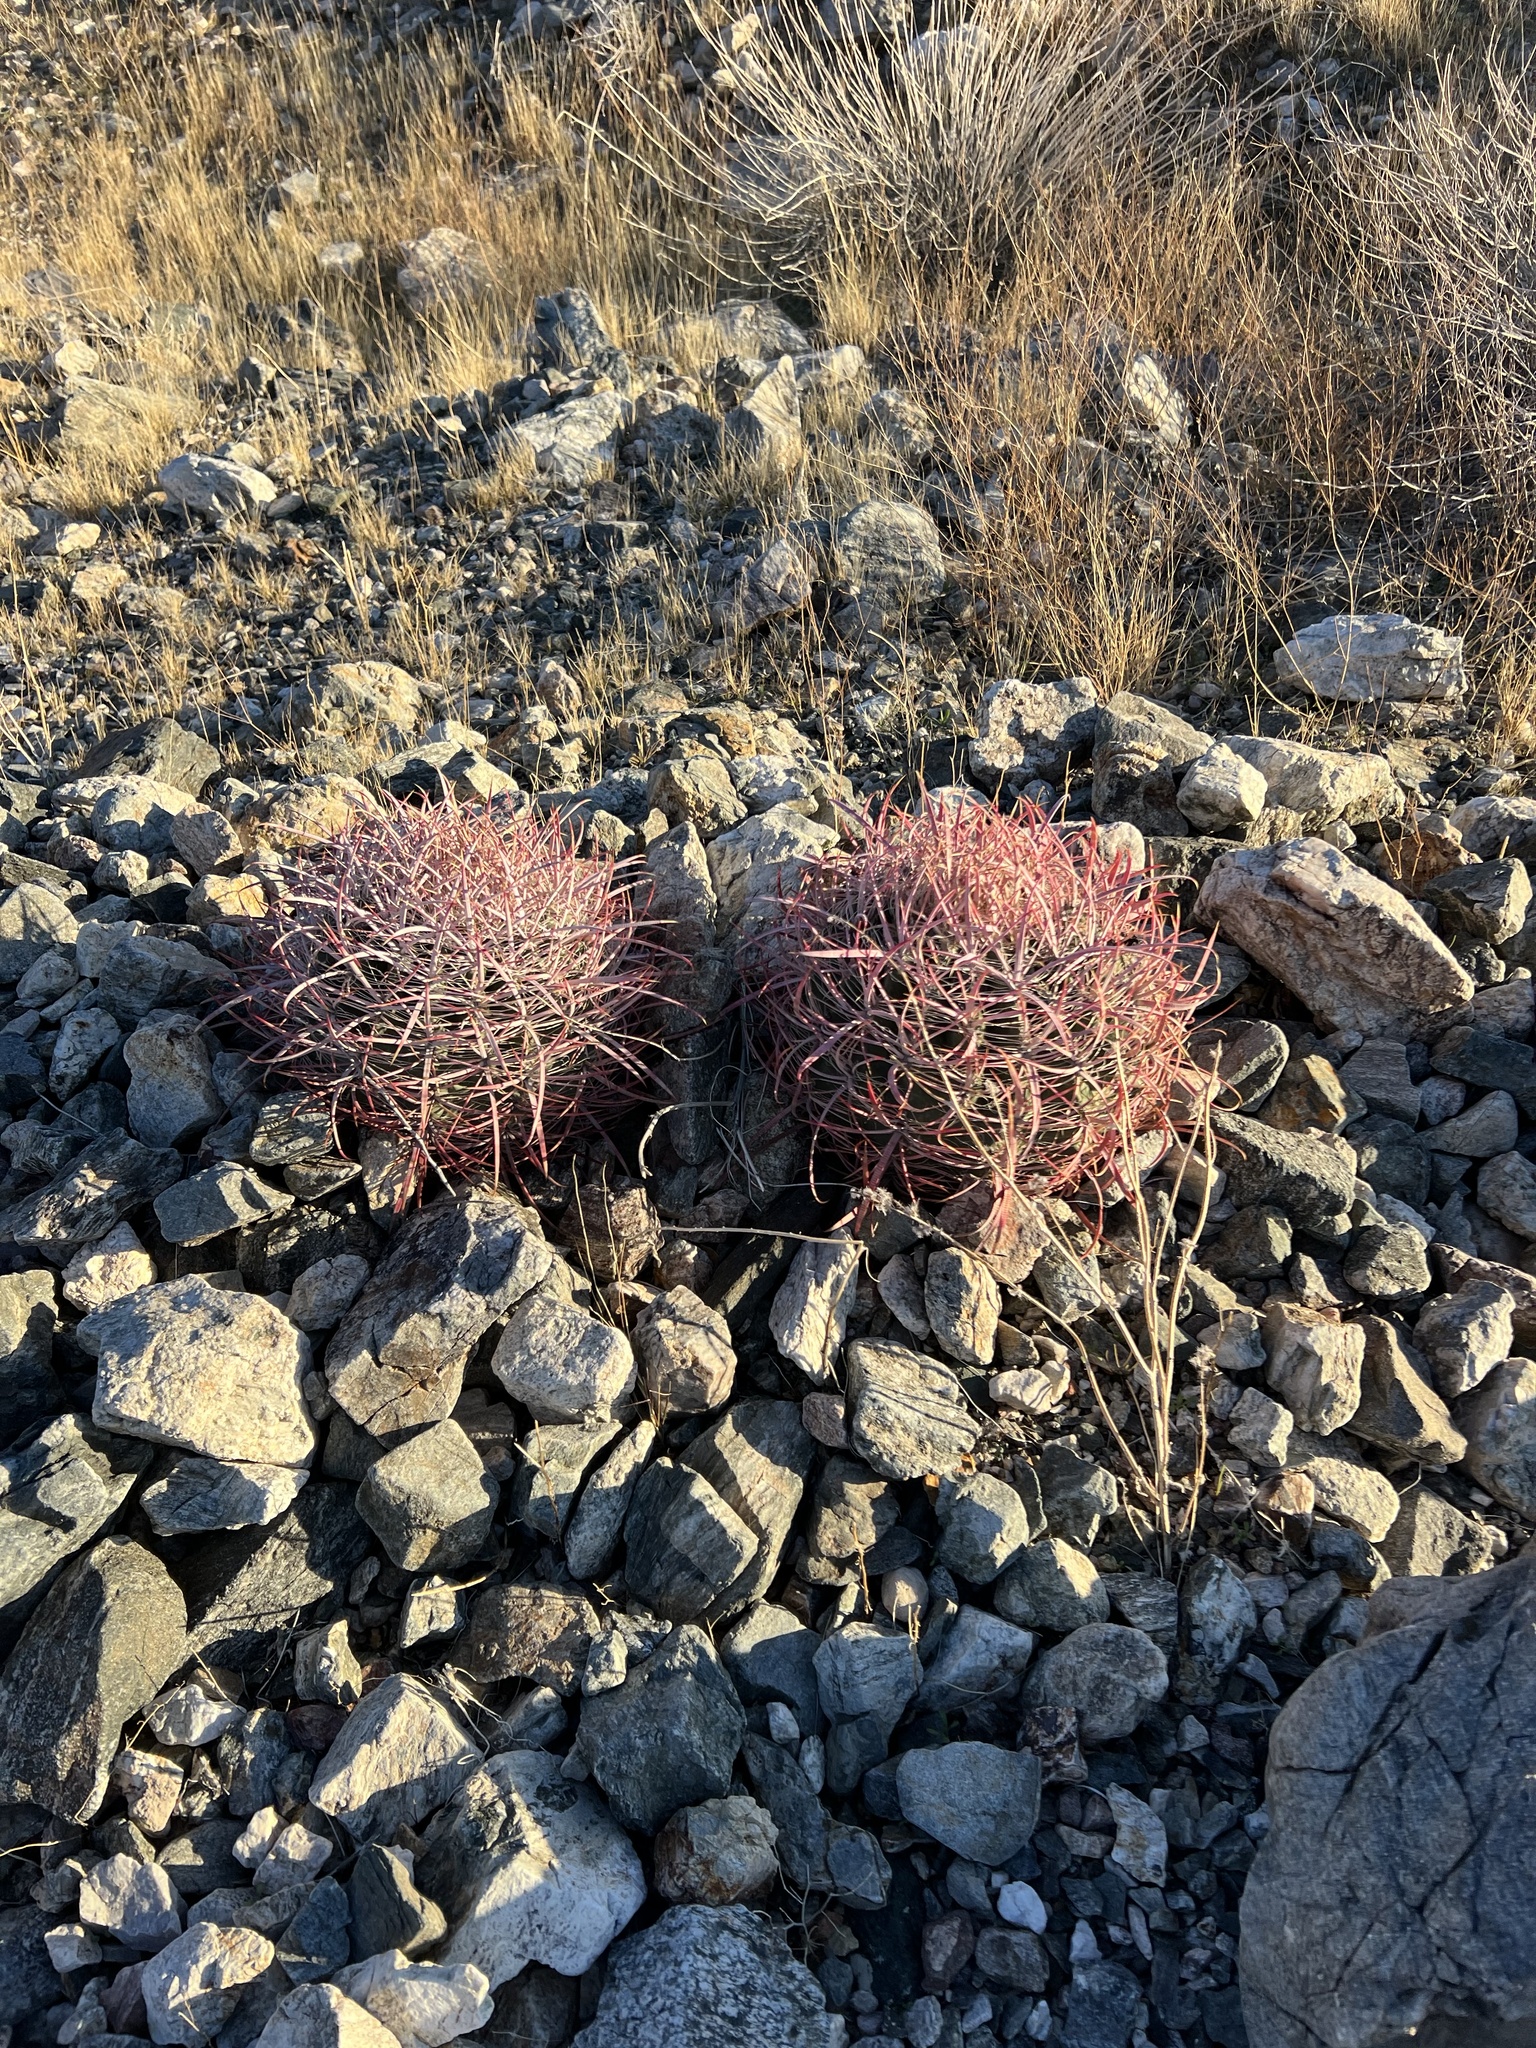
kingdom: Plantae
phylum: Tracheophyta
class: Magnoliopsida
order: Caryophyllales
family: Cactaceae
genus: Ferocactus
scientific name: Ferocactus cylindraceus
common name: California barrel cactus
